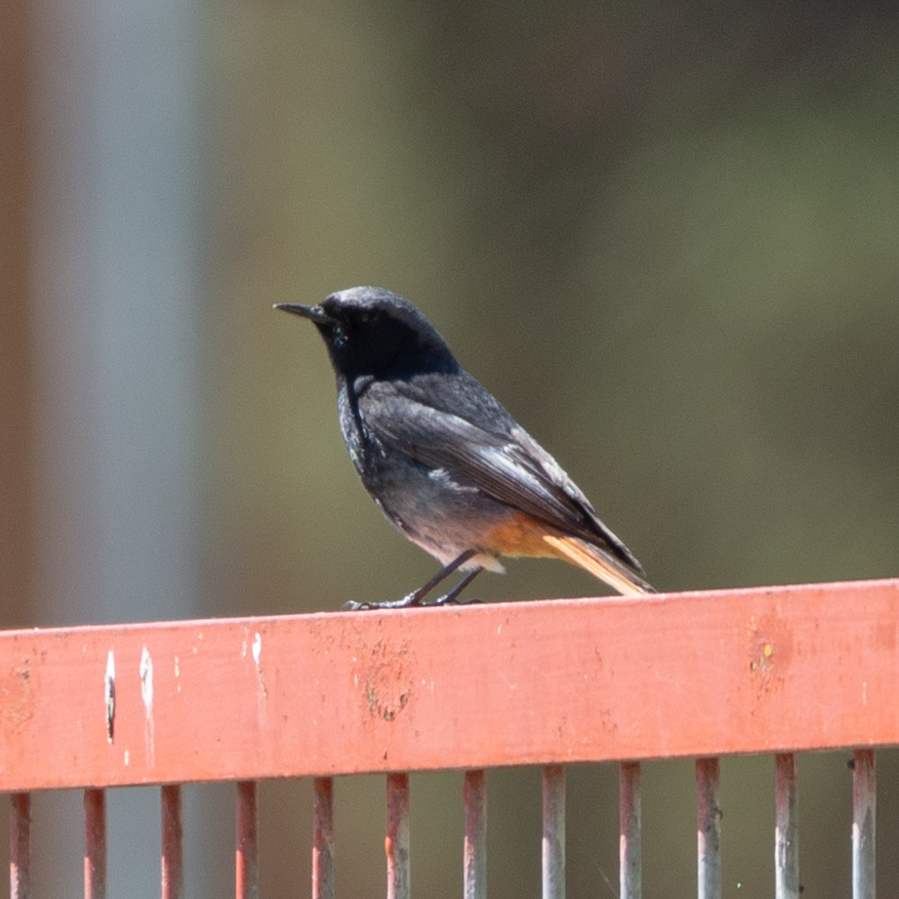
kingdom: Animalia
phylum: Chordata
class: Aves
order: Passeriformes
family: Muscicapidae
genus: Phoenicurus
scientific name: Phoenicurus ochruros
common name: Black redstart
